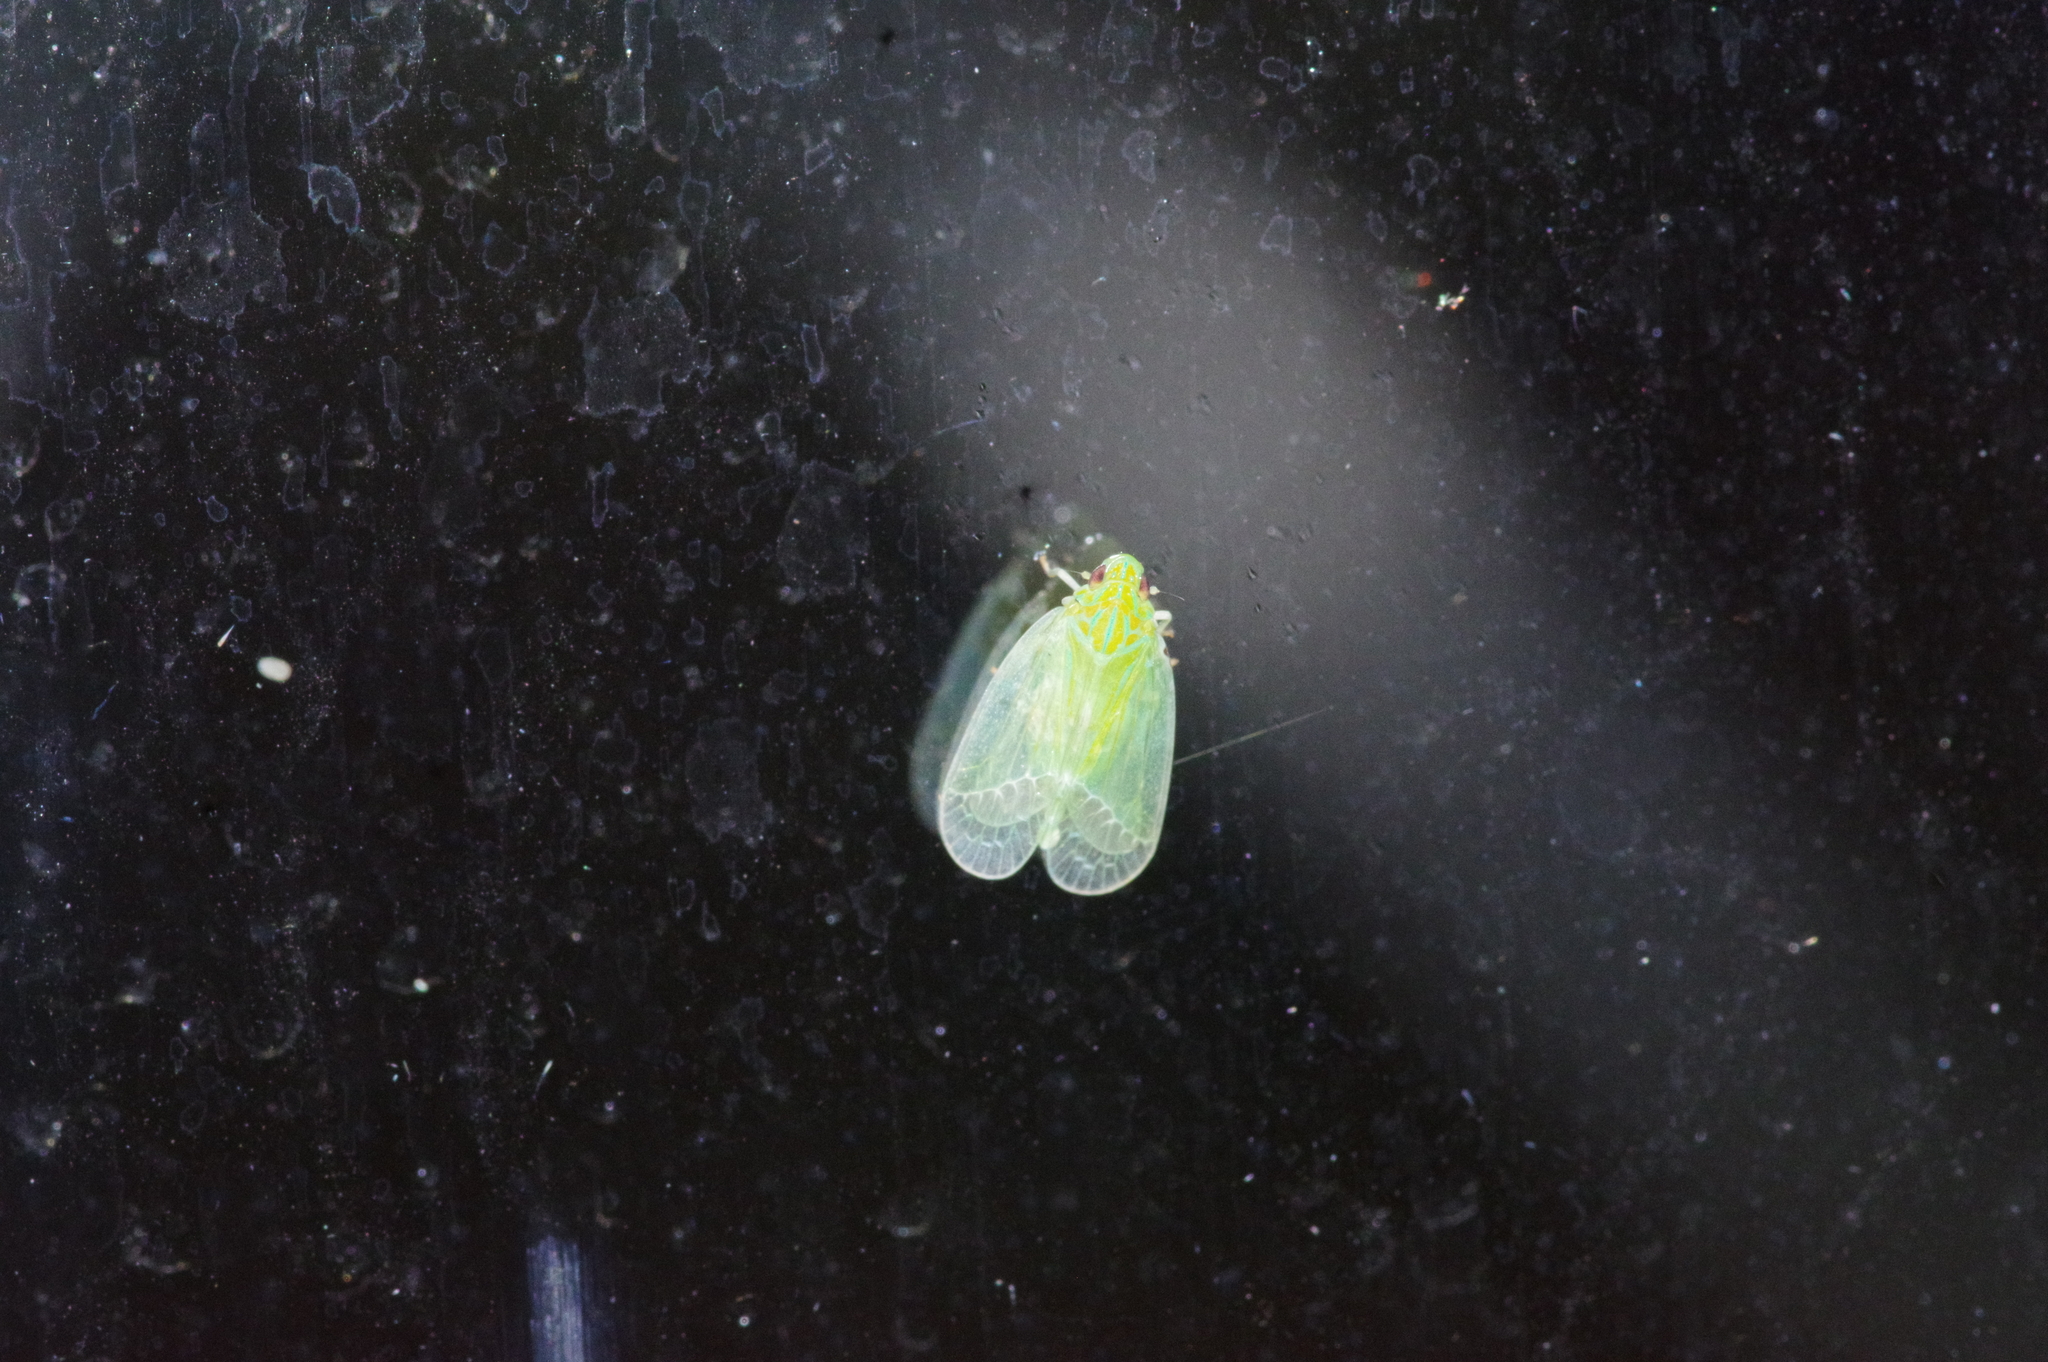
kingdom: Animalia
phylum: Arthropoda
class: Insecta
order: Hemiptera
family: Tropiduchidae
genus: Kallitaxila
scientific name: Kallitaxila sinica
